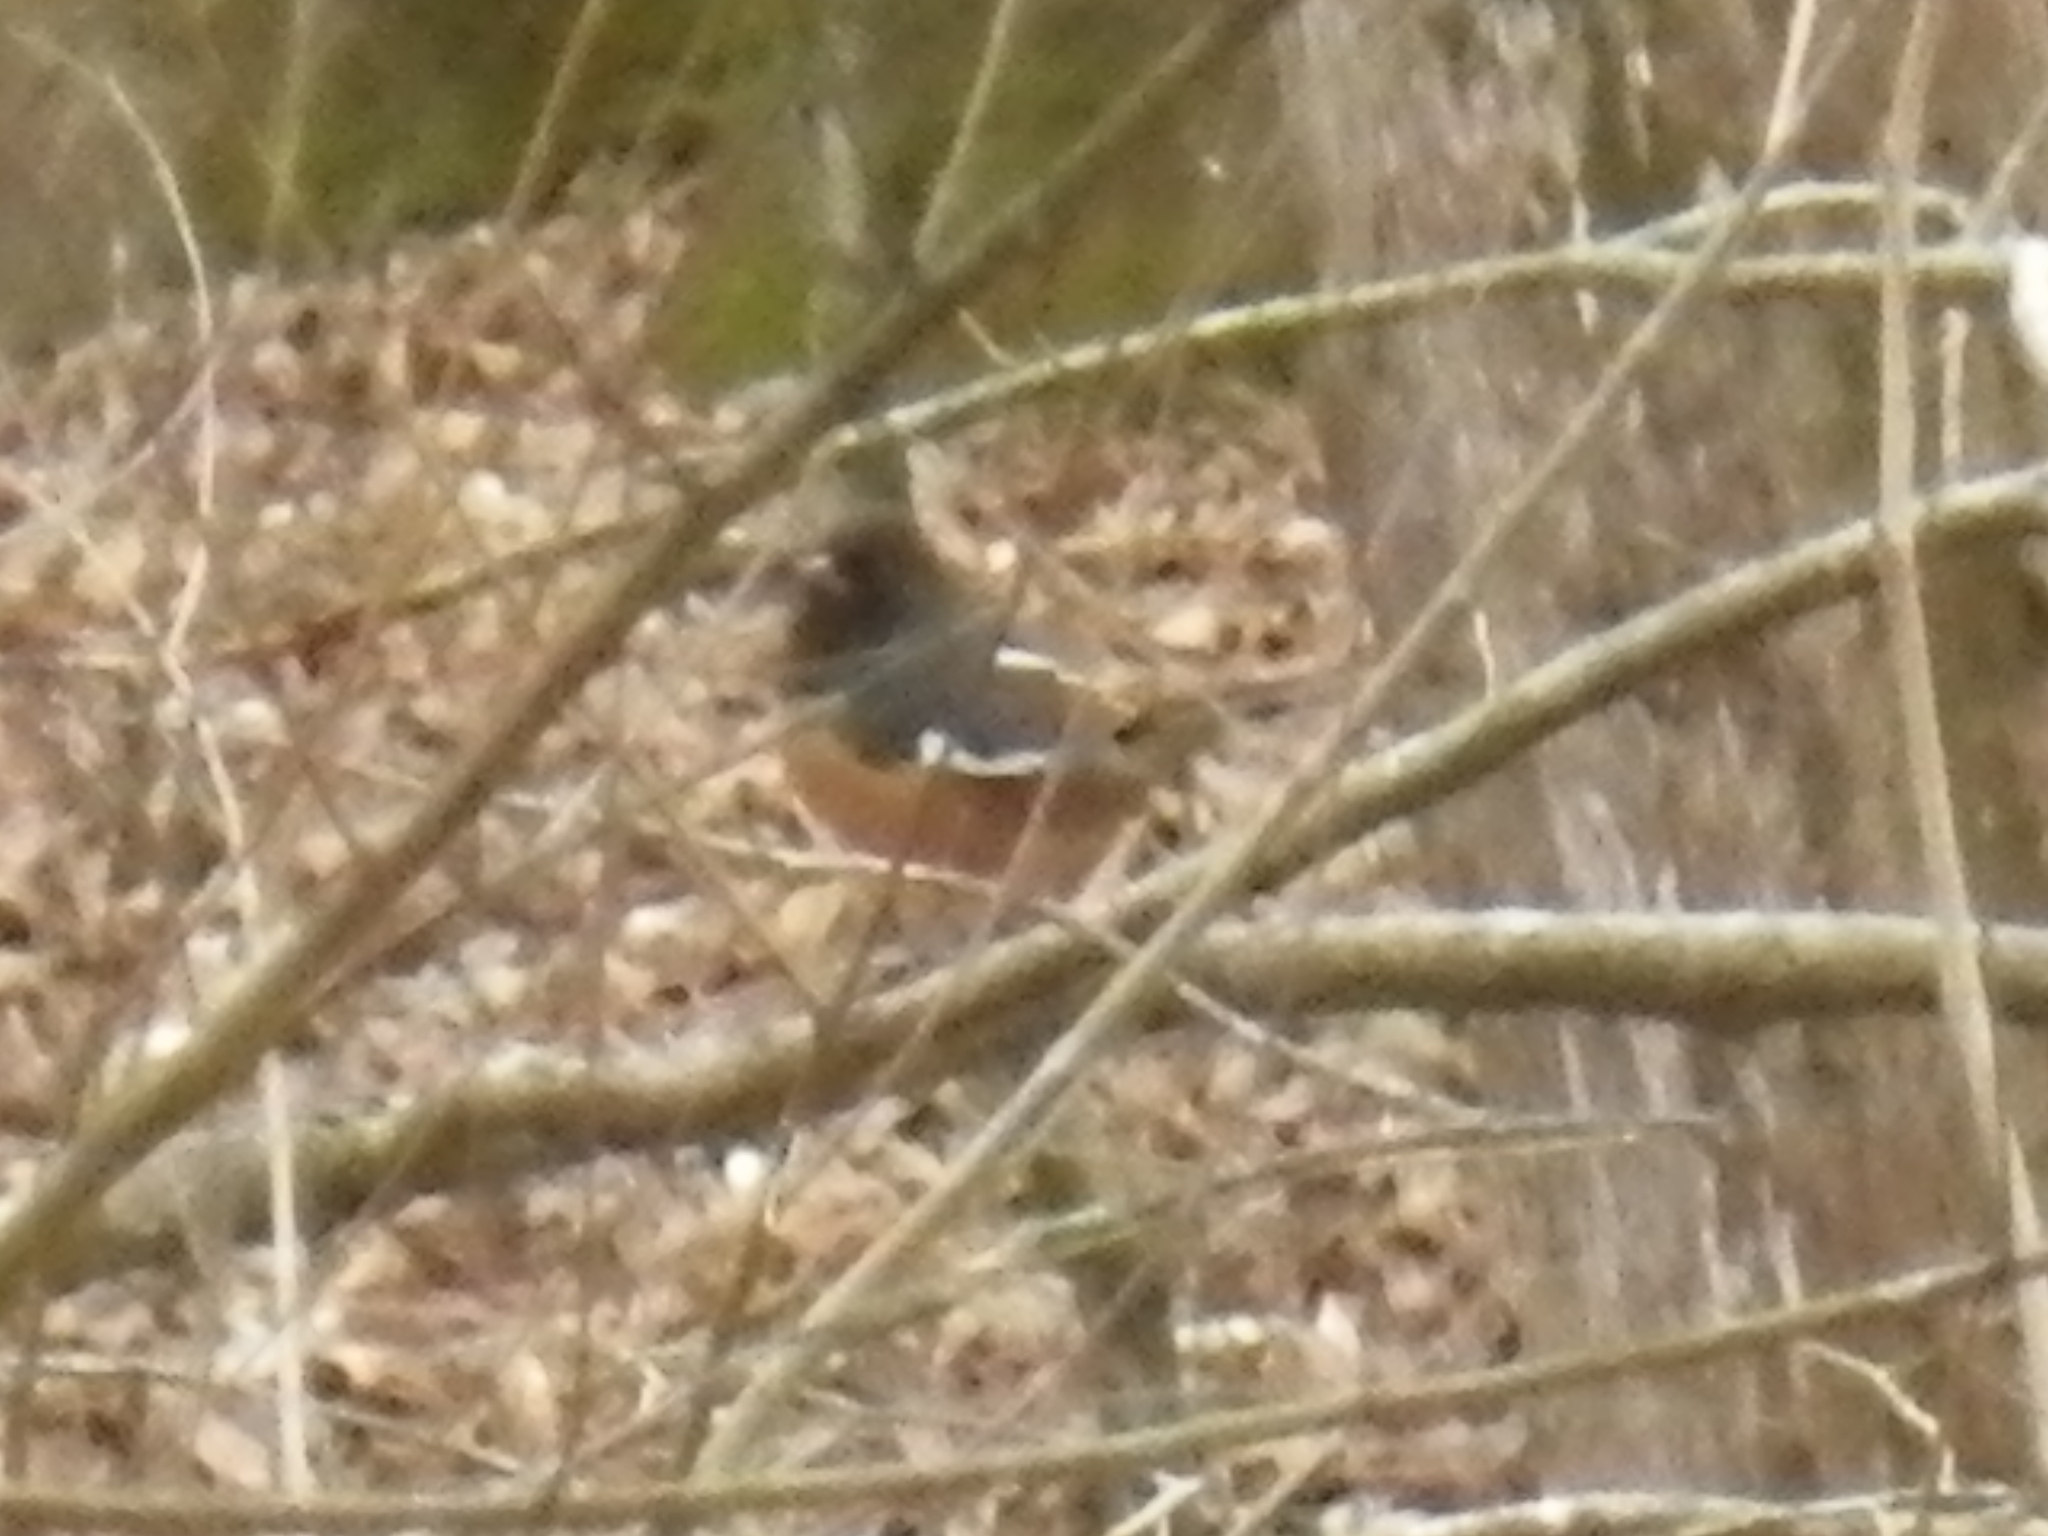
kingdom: Animalia
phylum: Chordata
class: Aves
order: Passeriformes
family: Passerellidae
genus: Pipilo
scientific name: Pipilo erythrophthalmus
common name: Eastern towhee
